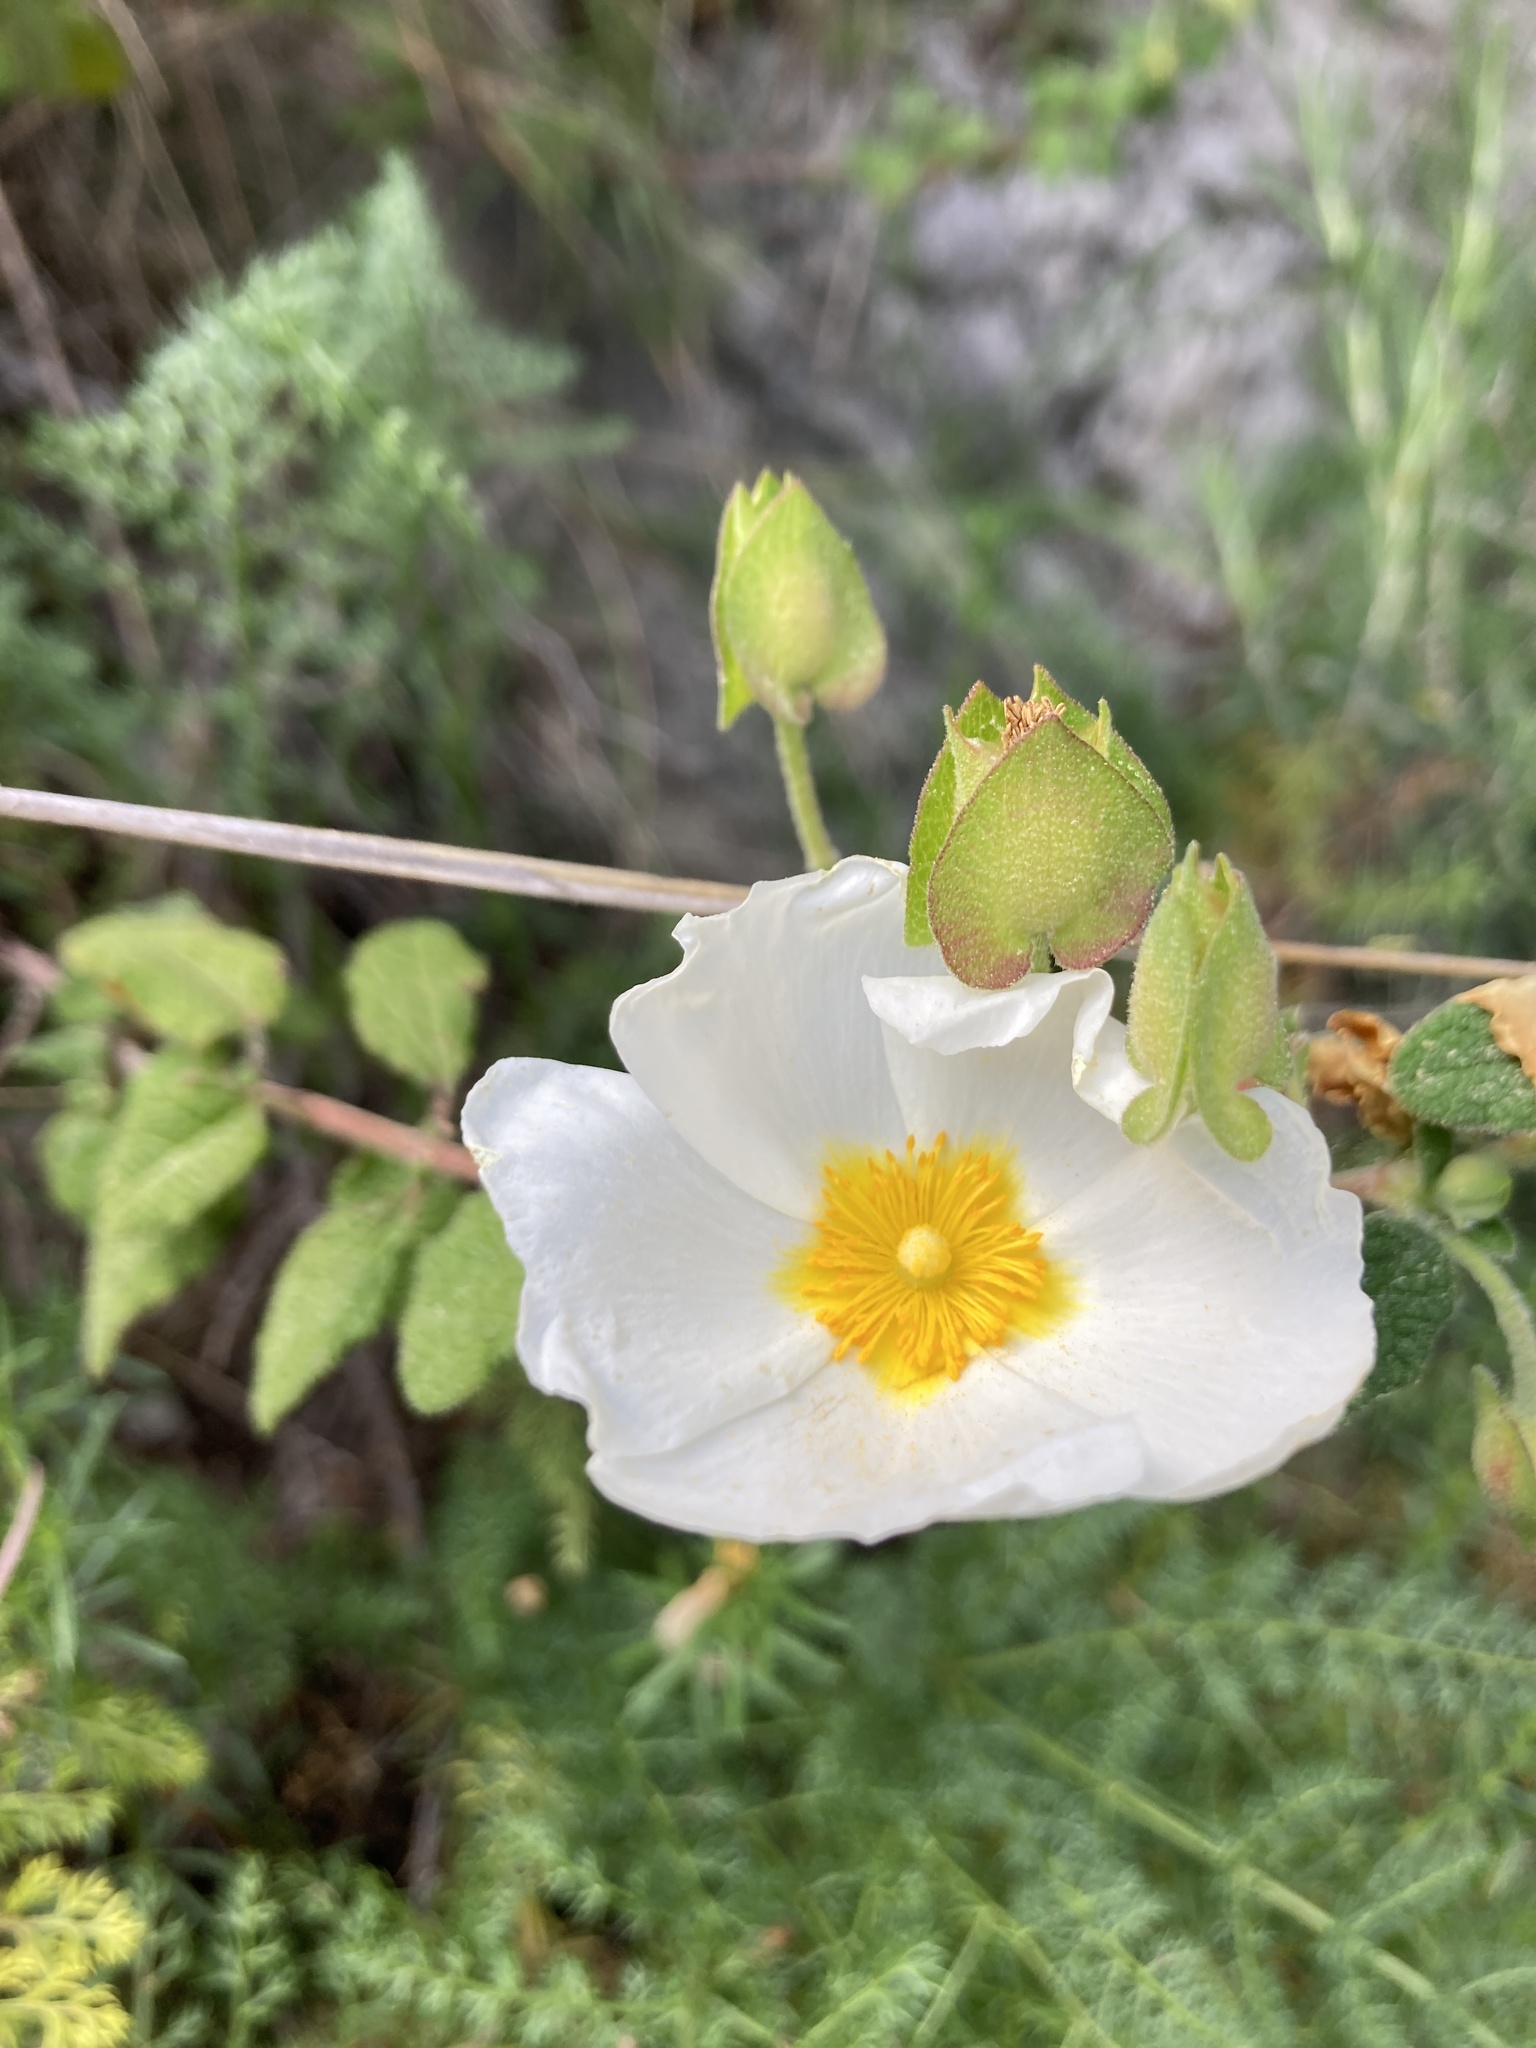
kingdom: Plantae
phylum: Tracheophyta
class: Magnoliopsida
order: Malvales
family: Cistaceae
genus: Cistus
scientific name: Cistus salviifolius
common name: Salvia cistus
